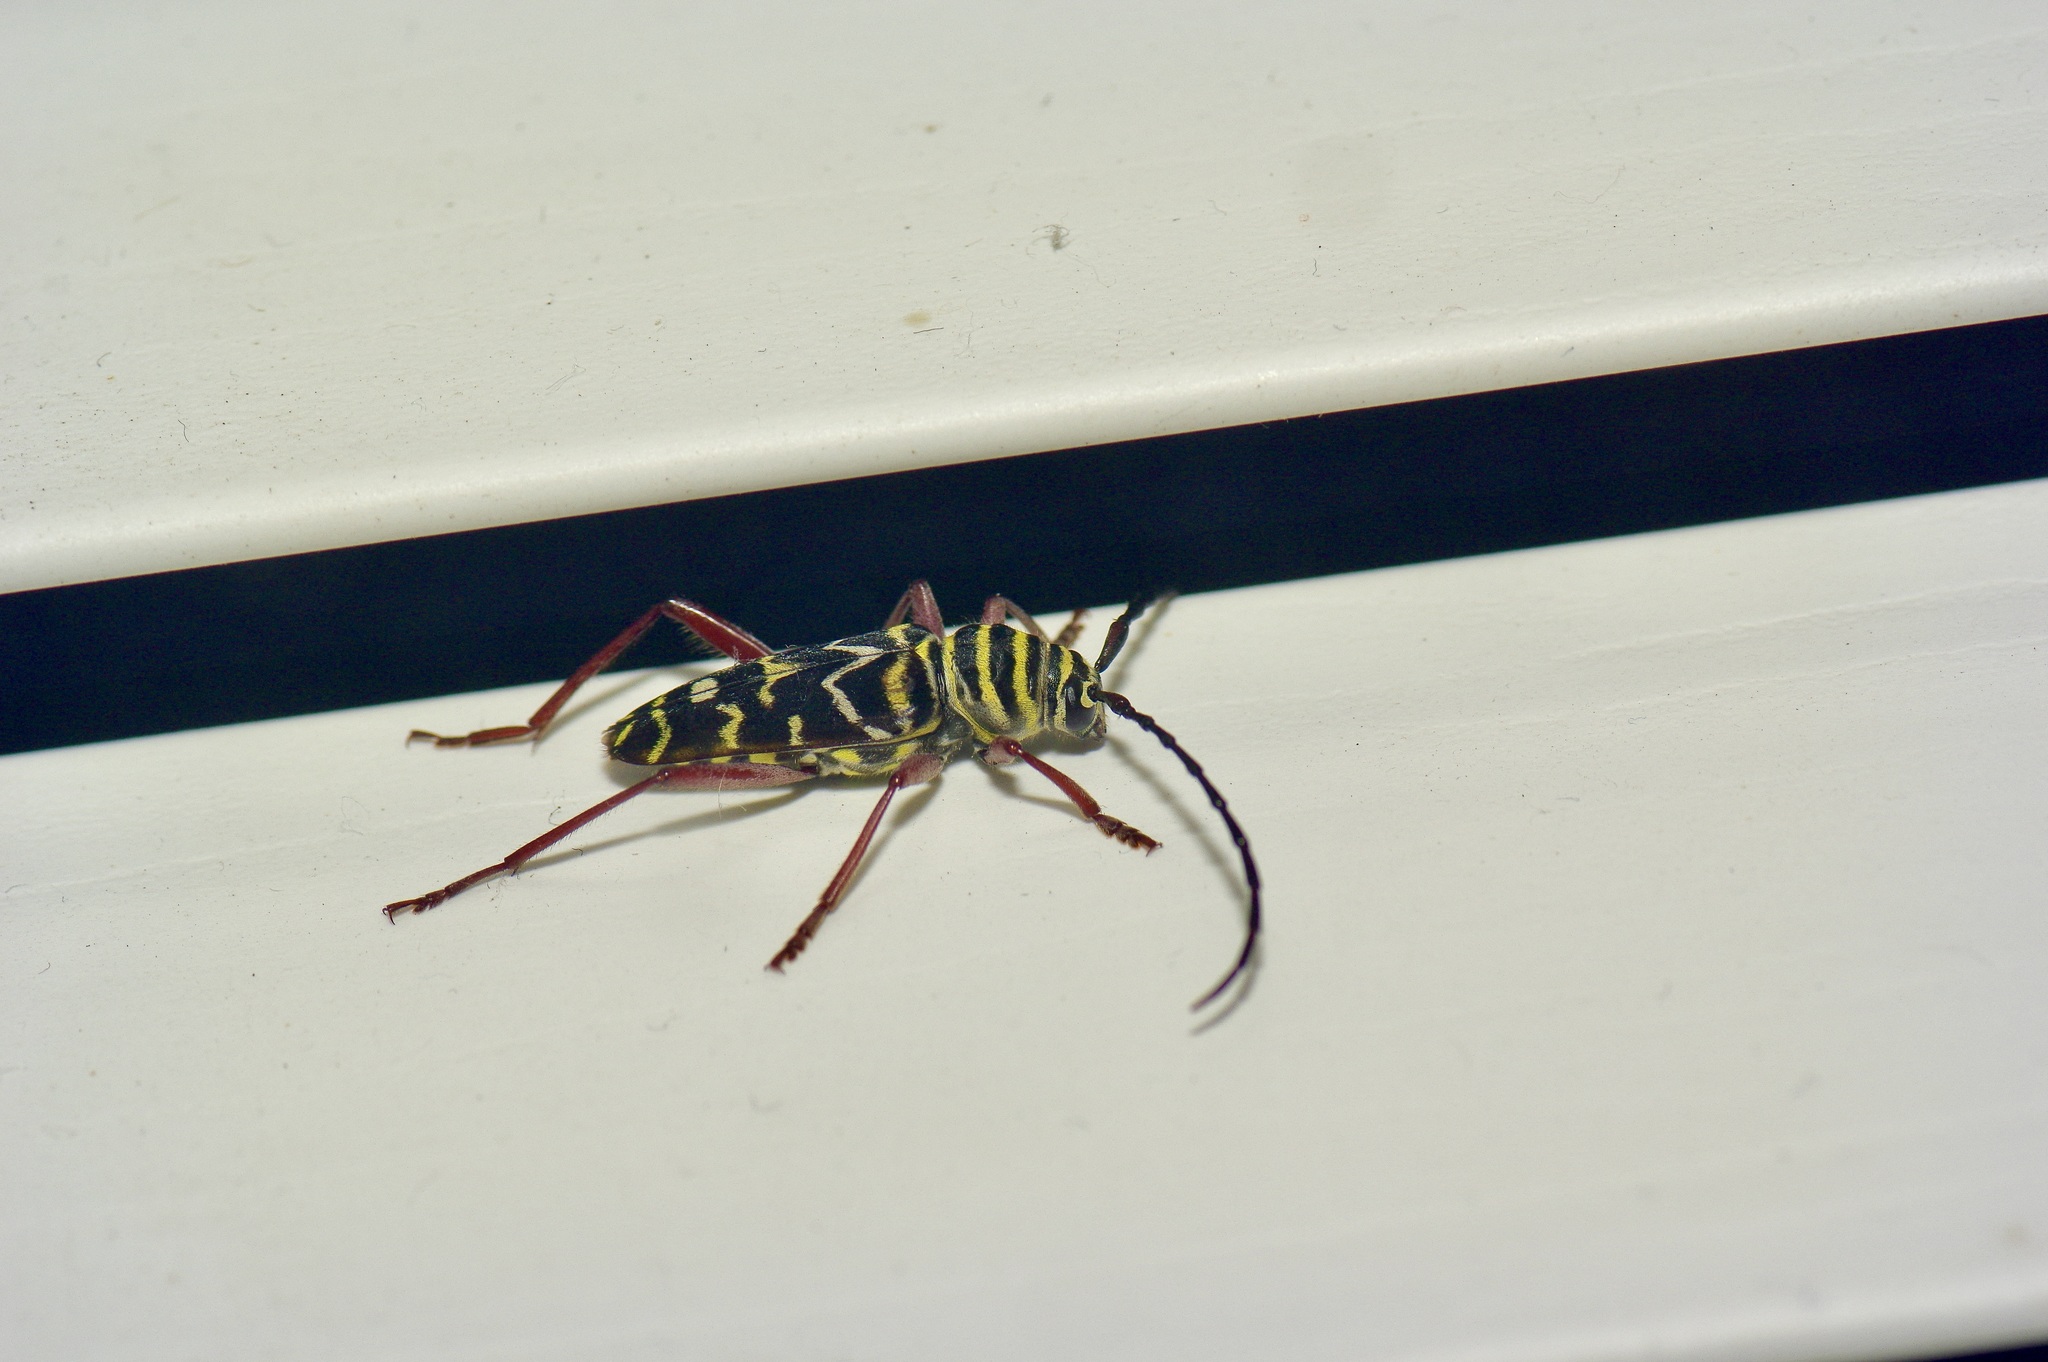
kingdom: Animalia
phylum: Arthropoda
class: Insecta
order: Coleoptera
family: Cerambycidae
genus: Megacyllene
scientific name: Megacyllene caryae
